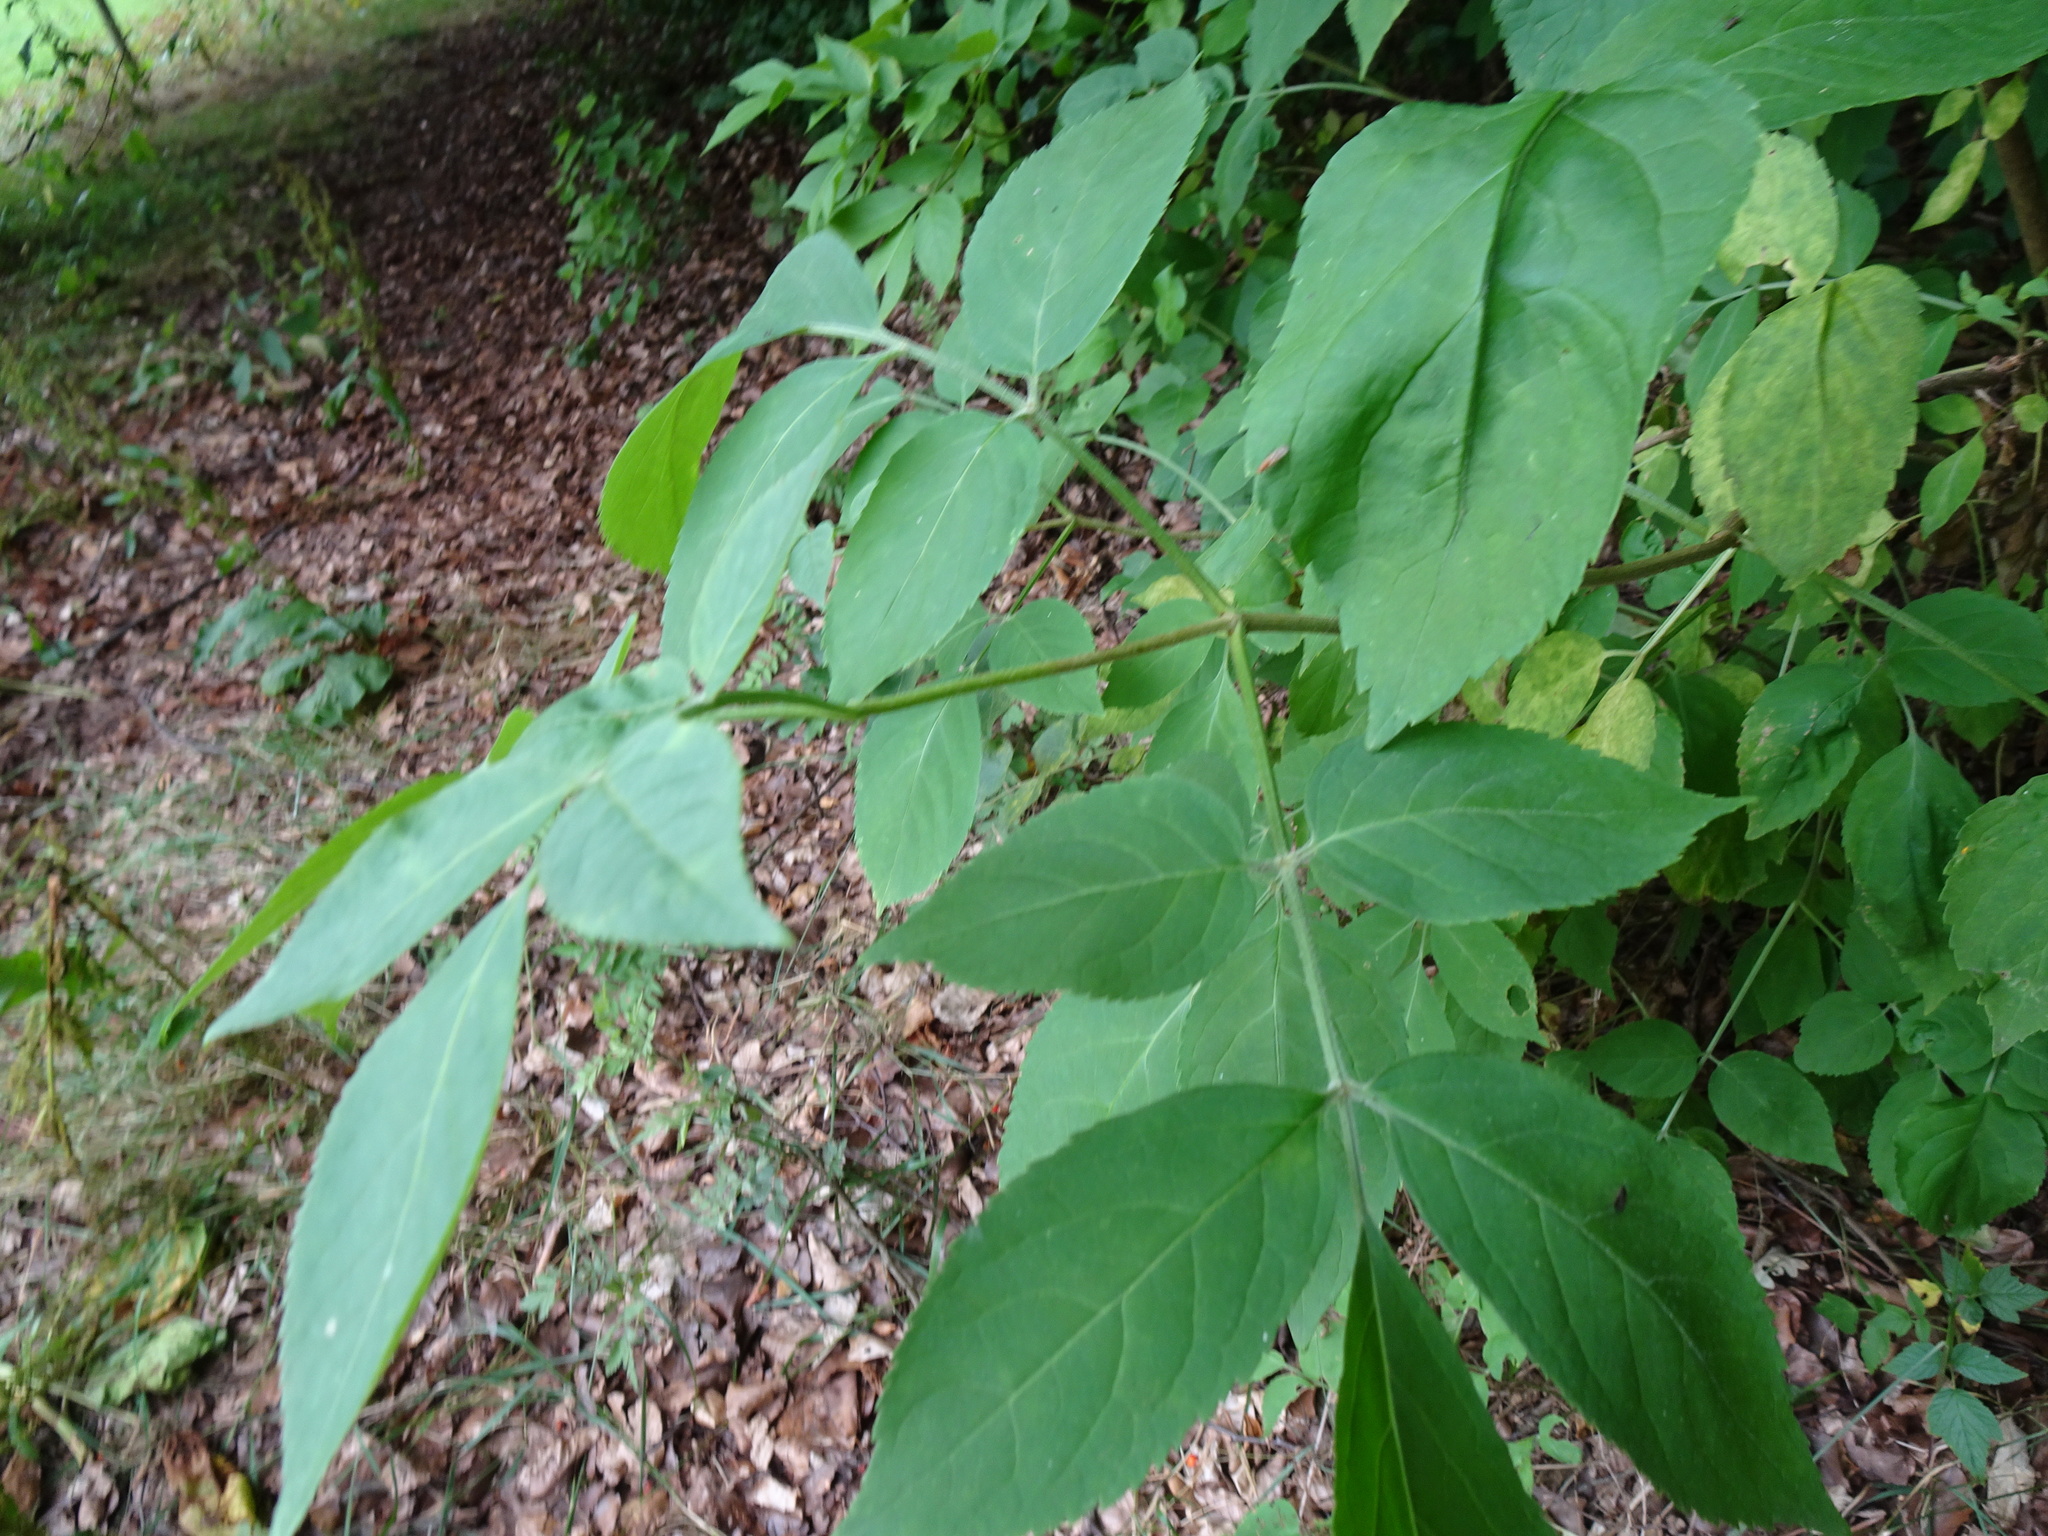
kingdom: Plantae
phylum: Tracheophyta
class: Magnoliopsida
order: Dipsacales
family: Viburnaceae
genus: Sambucus
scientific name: Sambucus nigra
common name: Elder
